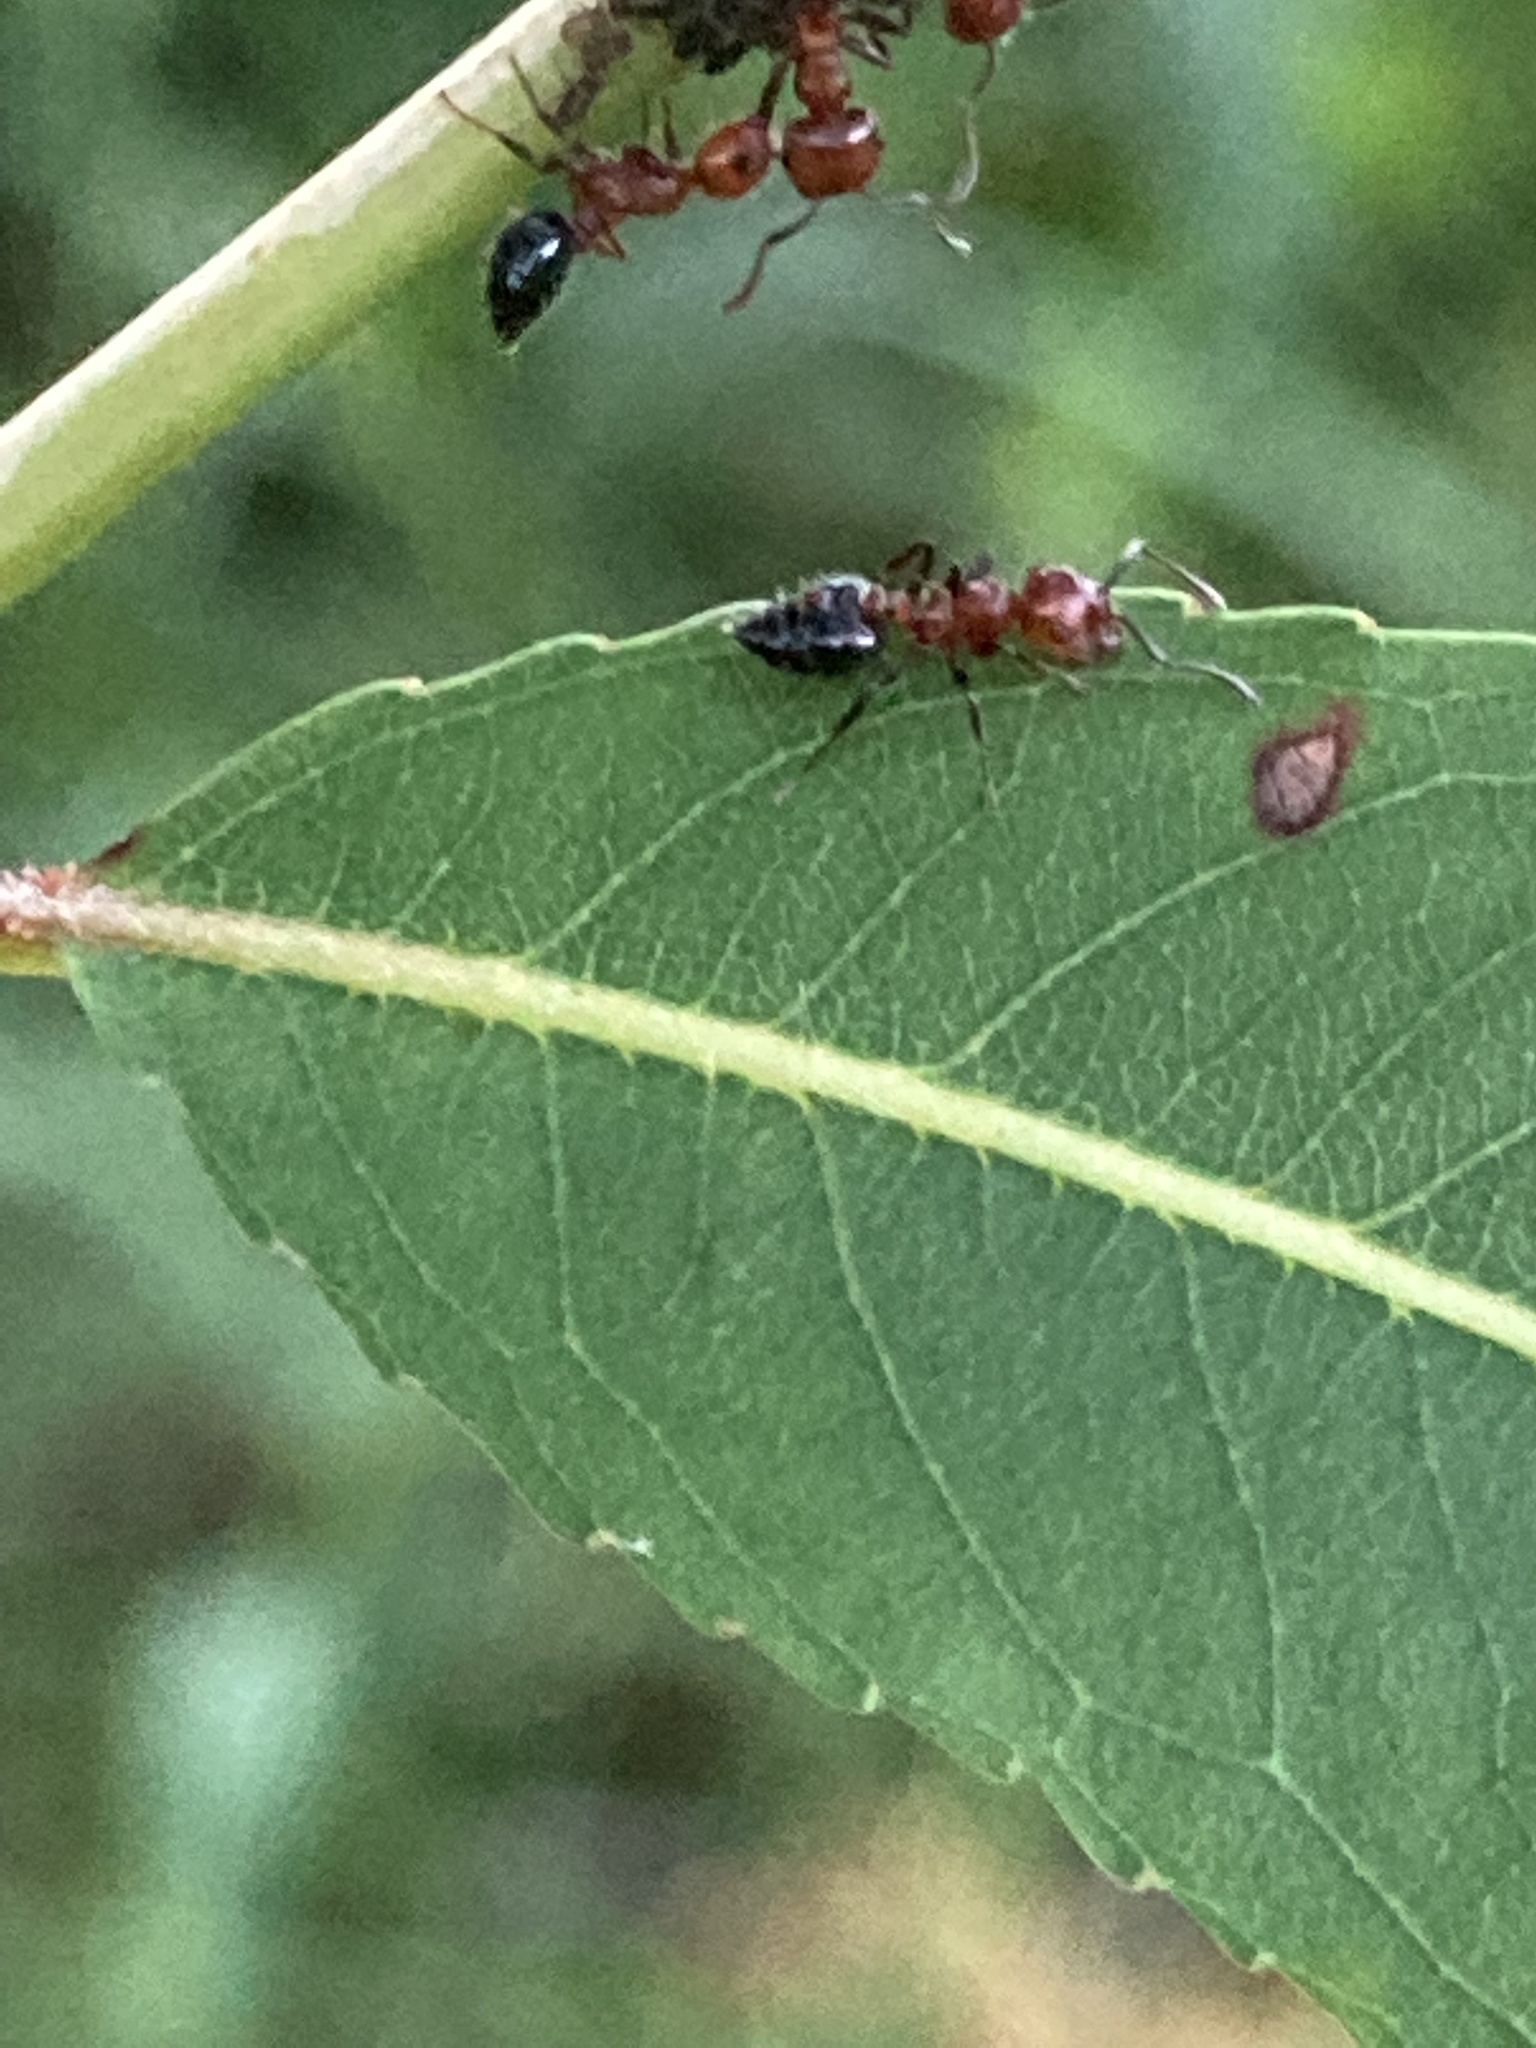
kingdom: Animalia
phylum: Arthropoda
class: Insecta
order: Hymenoptera
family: Formicidae
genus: Crematogaster
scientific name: Crematogaster laeviuscula
